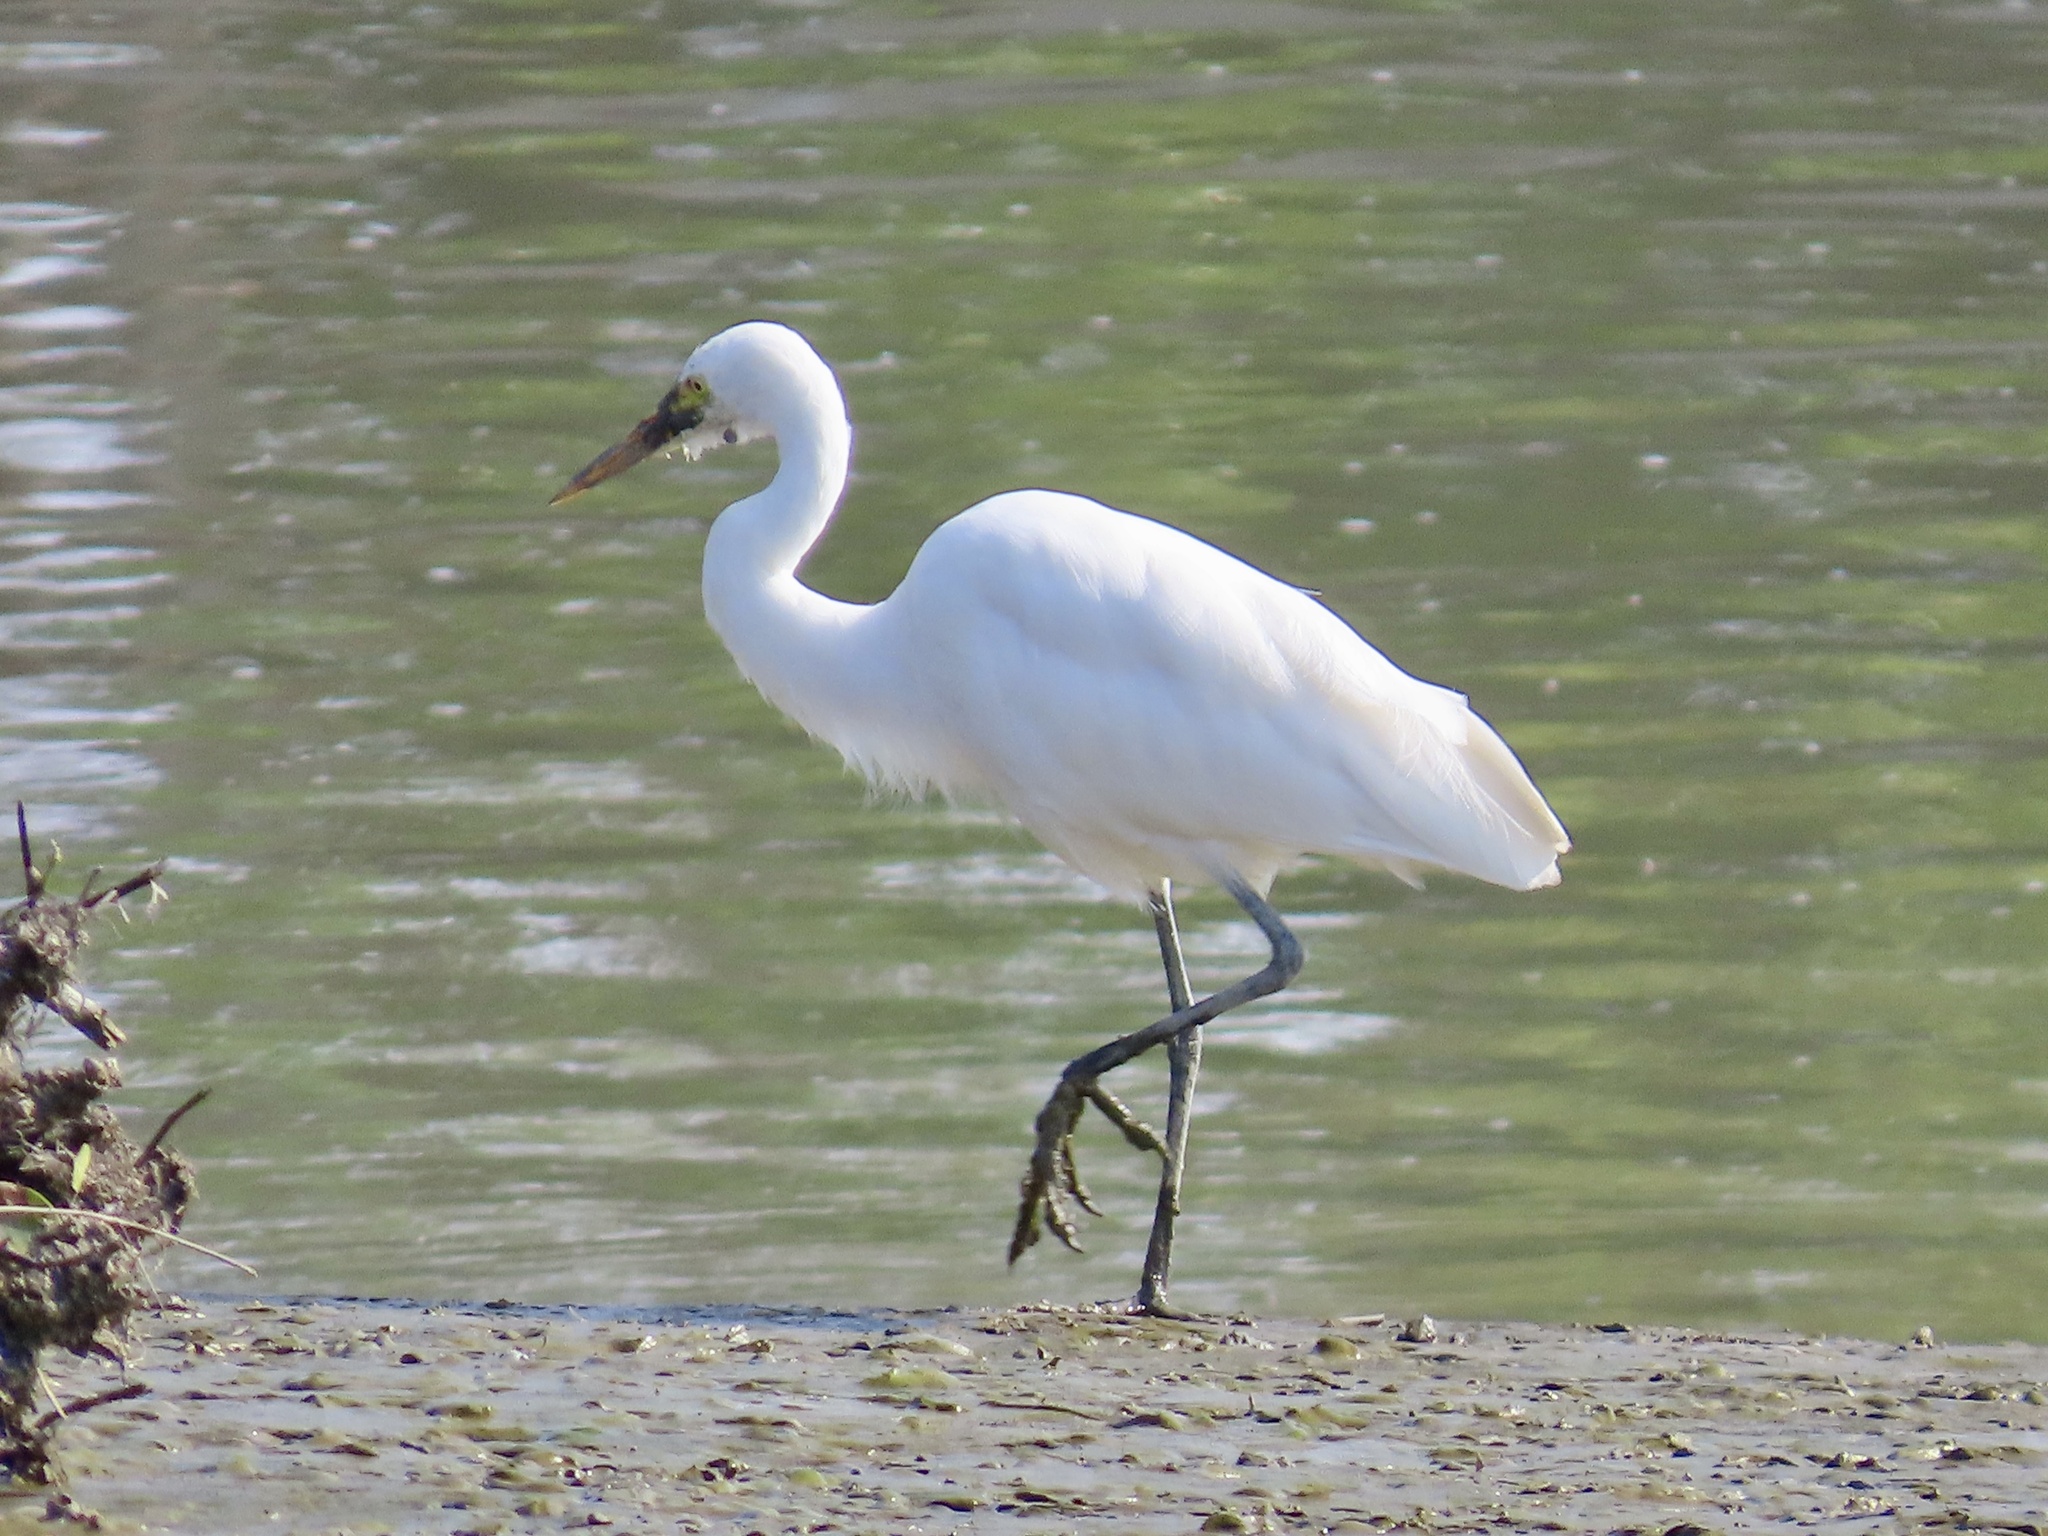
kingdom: Animalia
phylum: Chordata
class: Aves
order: Pelecaniformes
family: Ardeidae
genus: Egretta
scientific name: Egretta intermedia
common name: Intermediate egret
